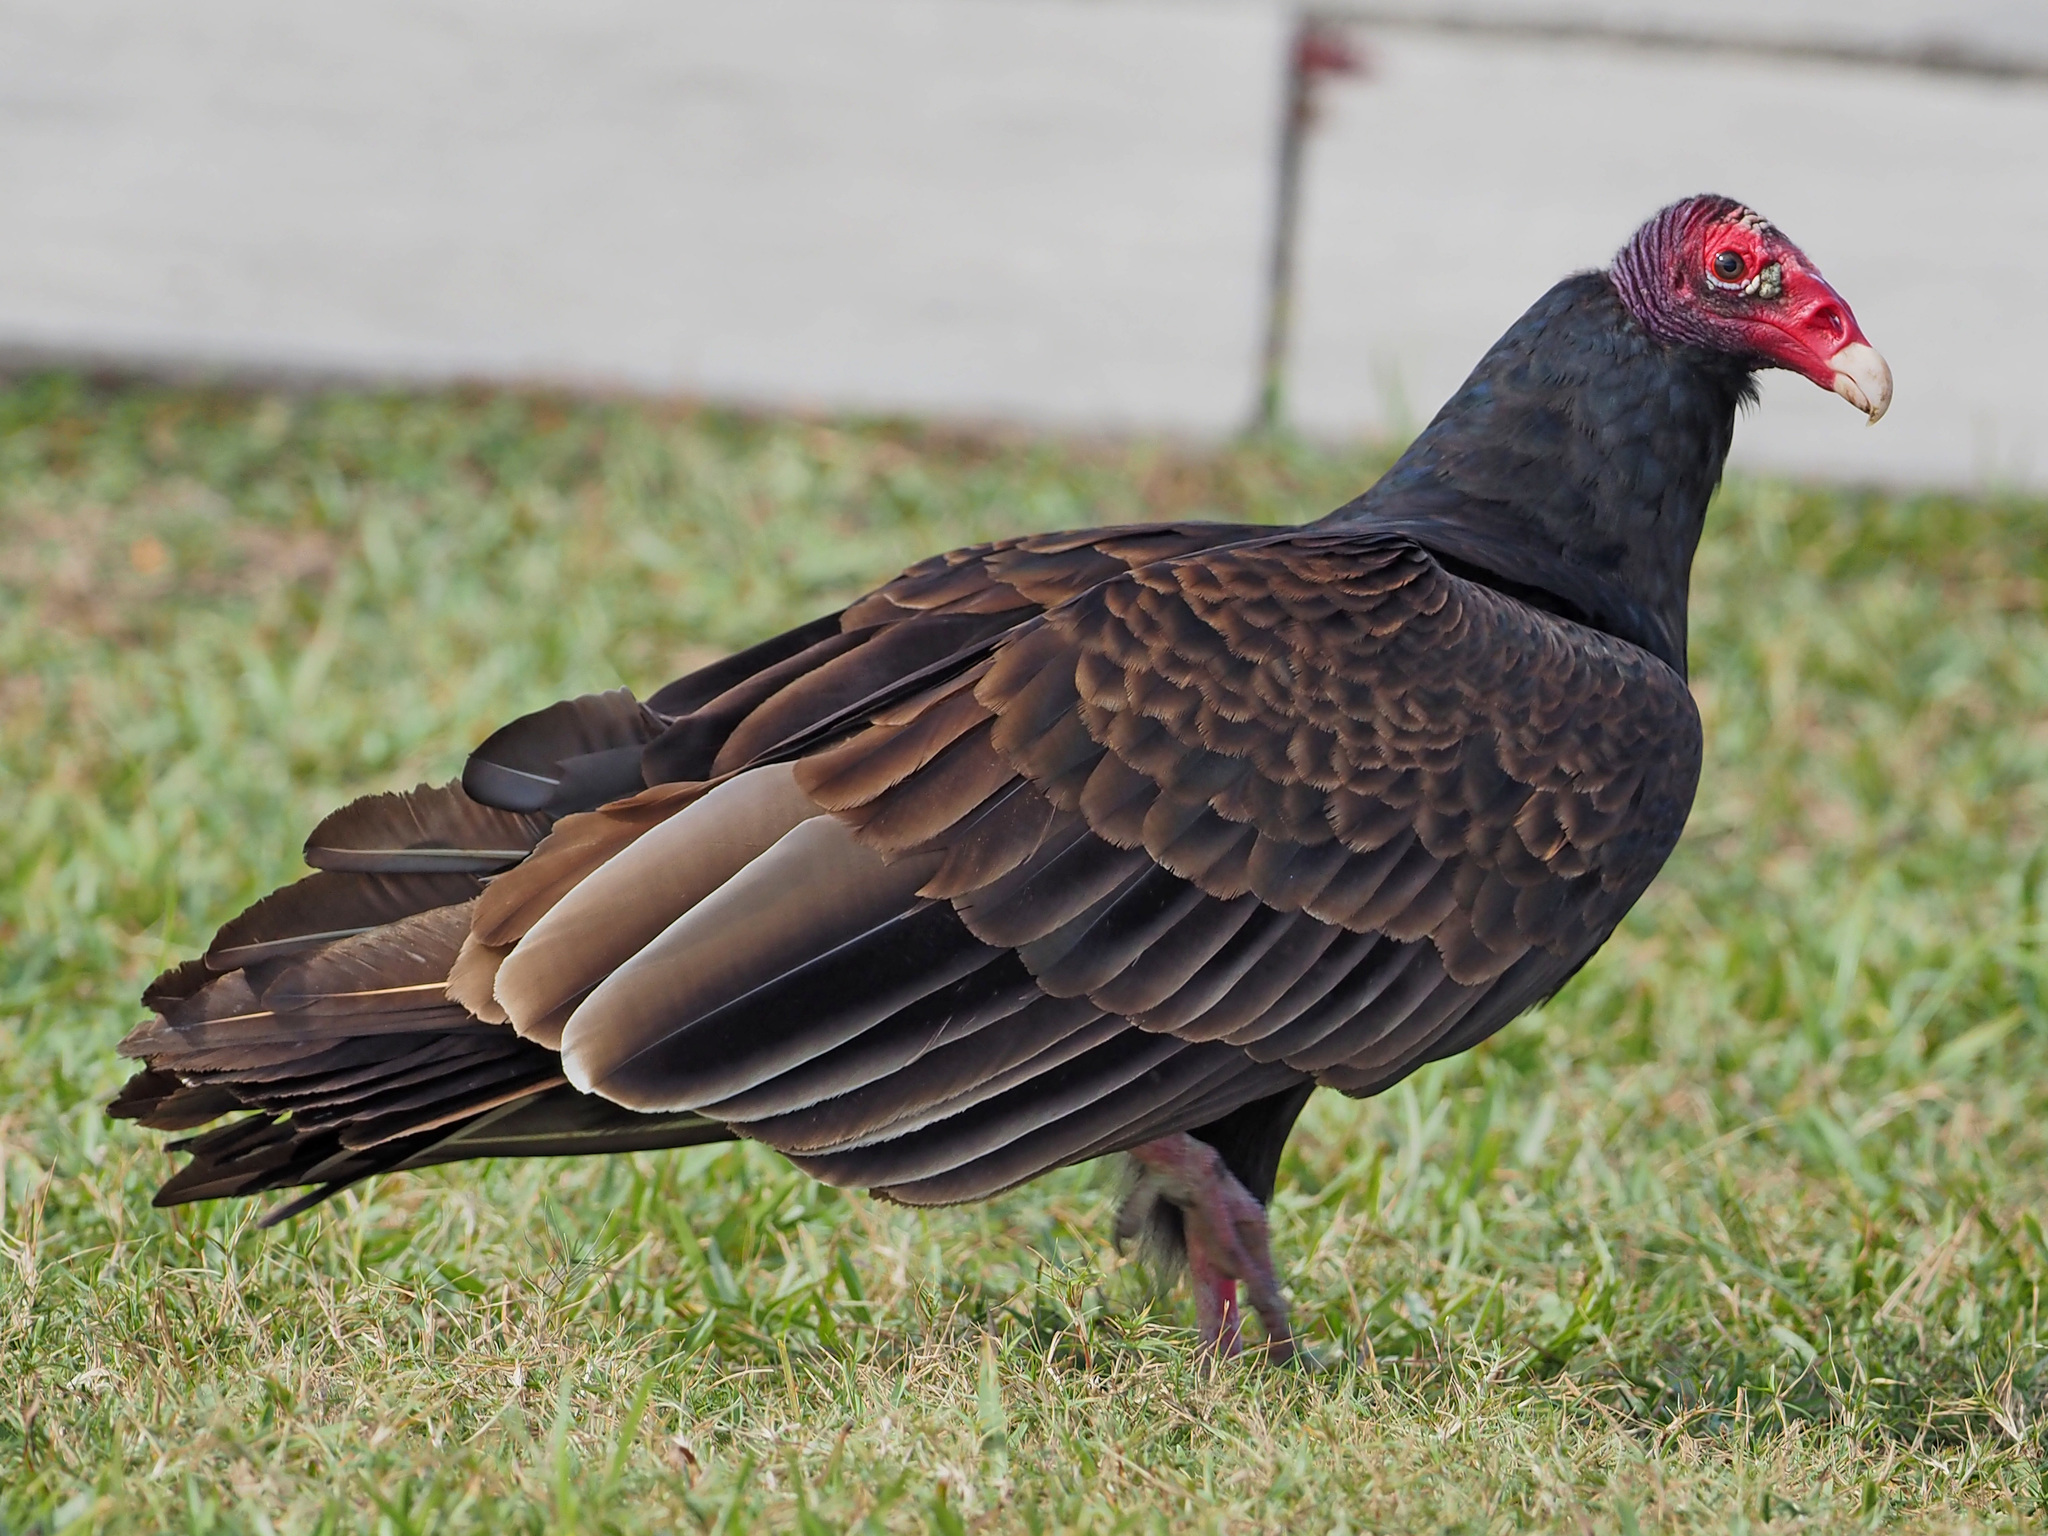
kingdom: Animalia
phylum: Chordata
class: Aves
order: Accipitriformes
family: Cathartidae
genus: Cathartes
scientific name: Cathartes aura
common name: Turkey vulture
